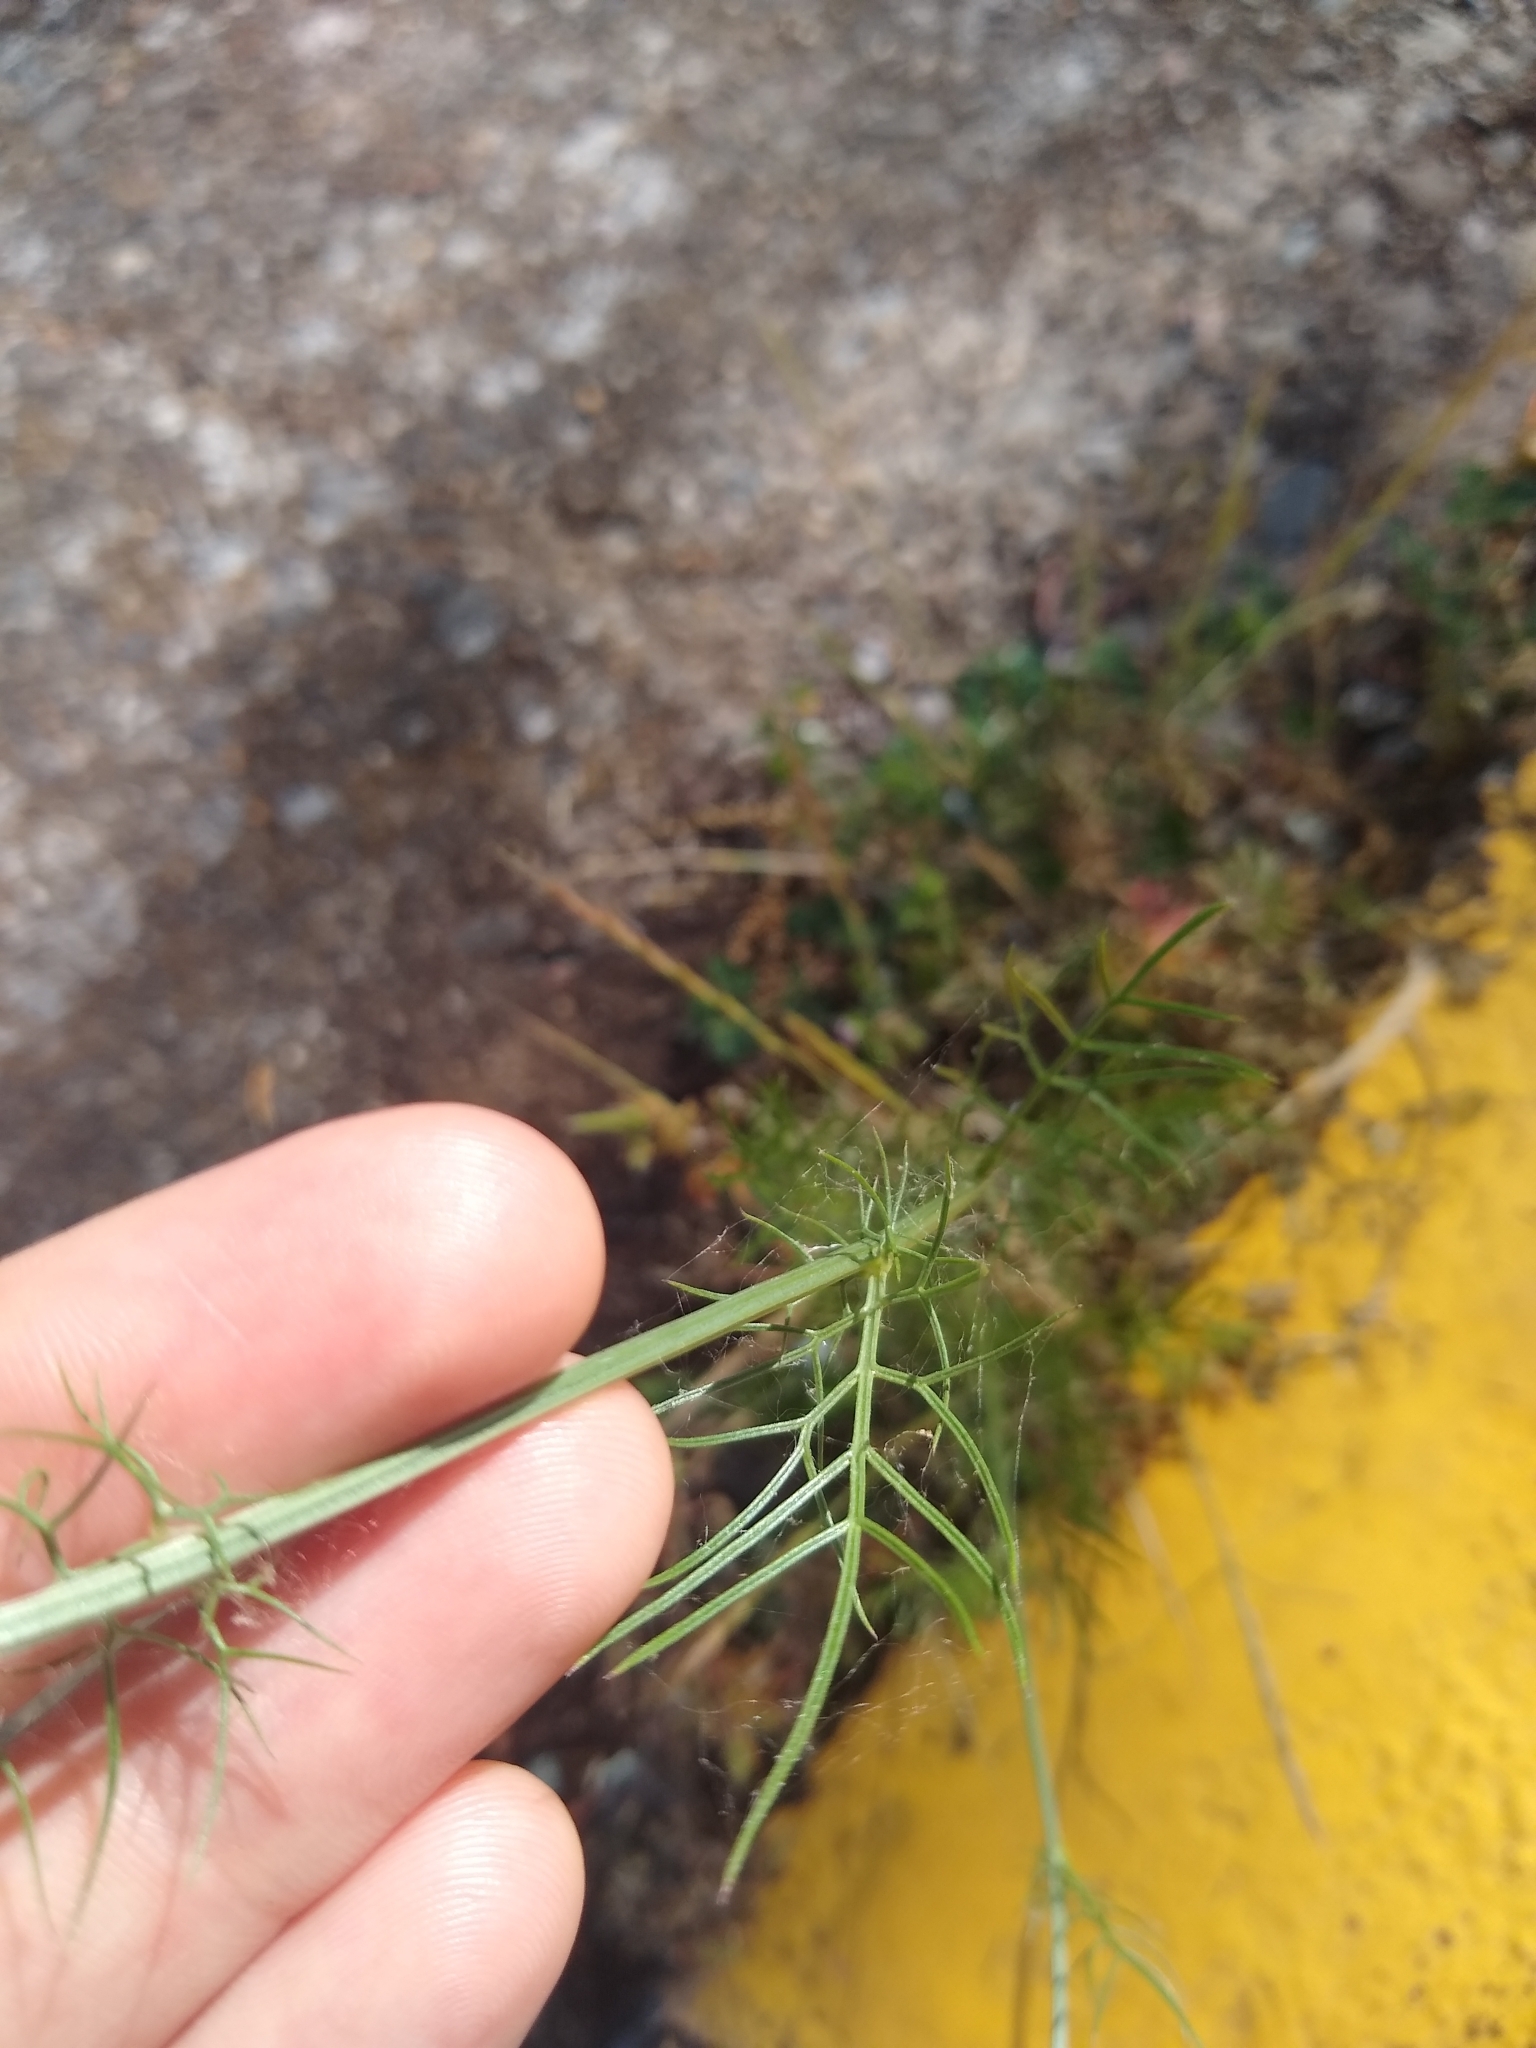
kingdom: Plantae
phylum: Tracheophyta
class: Magnoliopsida
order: Ranunculales
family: Ranunculaceae
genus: Nigella
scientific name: Nigella damascena
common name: Love-in-a-mist
